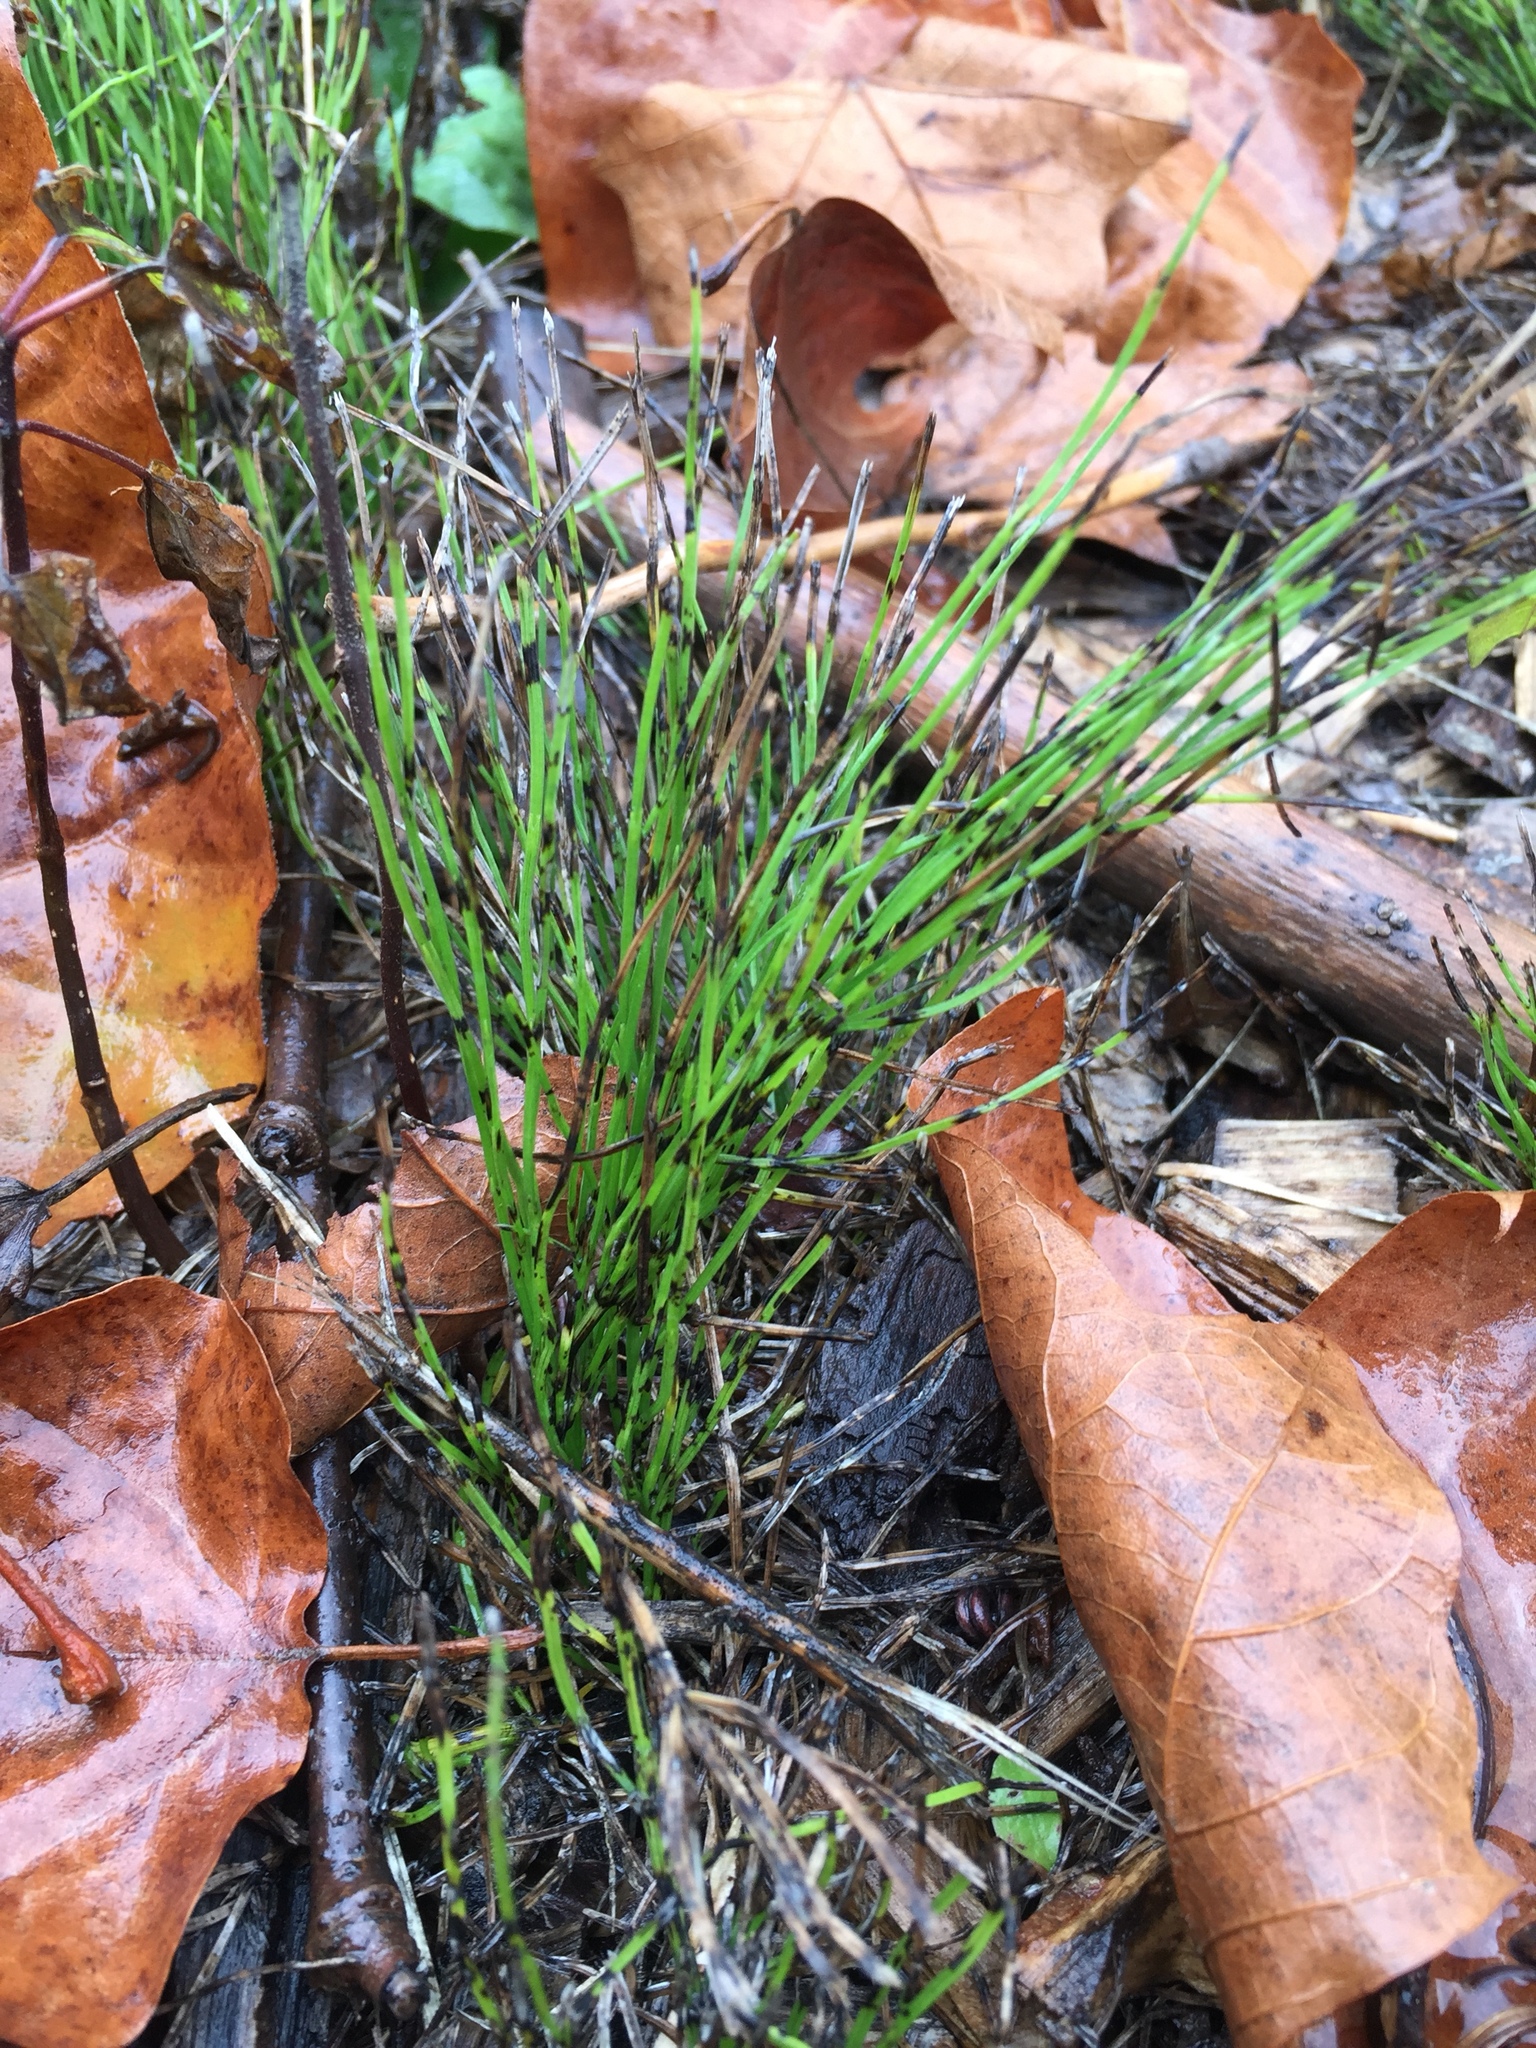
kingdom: Plantae
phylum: Tracheophyta
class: Polypodiopsida
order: Equisetales
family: Equisetaceae
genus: Equisetum
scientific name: Equisetum arvense
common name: Field horsetail
